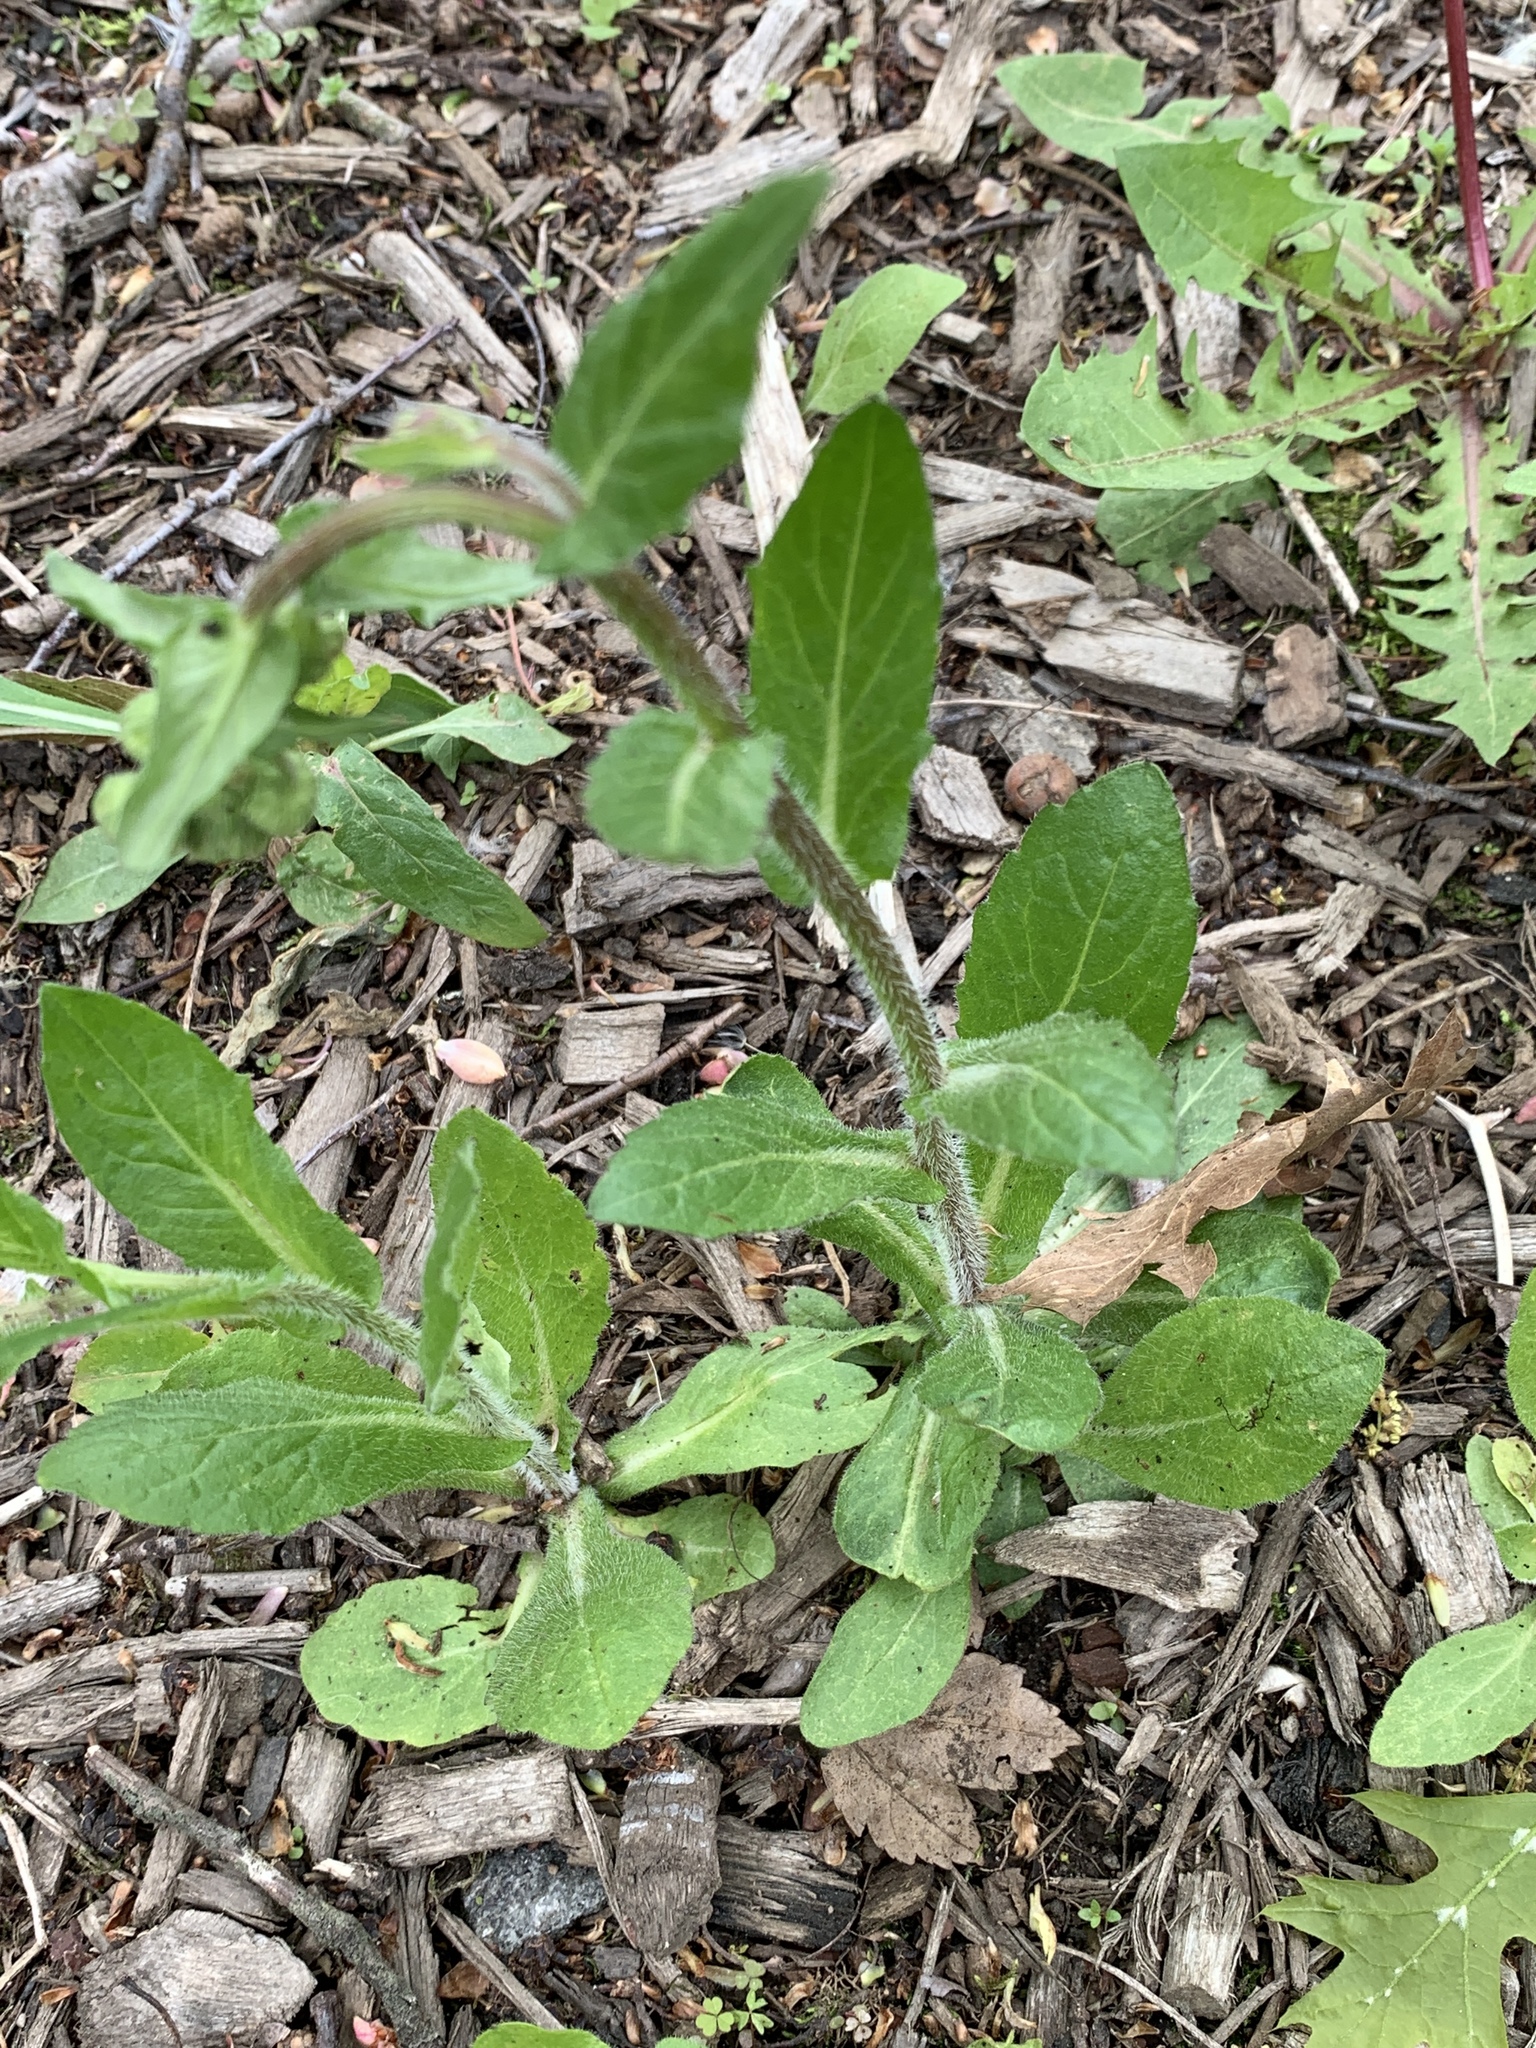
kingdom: Plantae
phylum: Tracheophyta
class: Magnoliopsida
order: Asterales
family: Asteraceae
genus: Erigeron
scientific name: Erigeron philadelphicus
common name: Robin's-plantain
